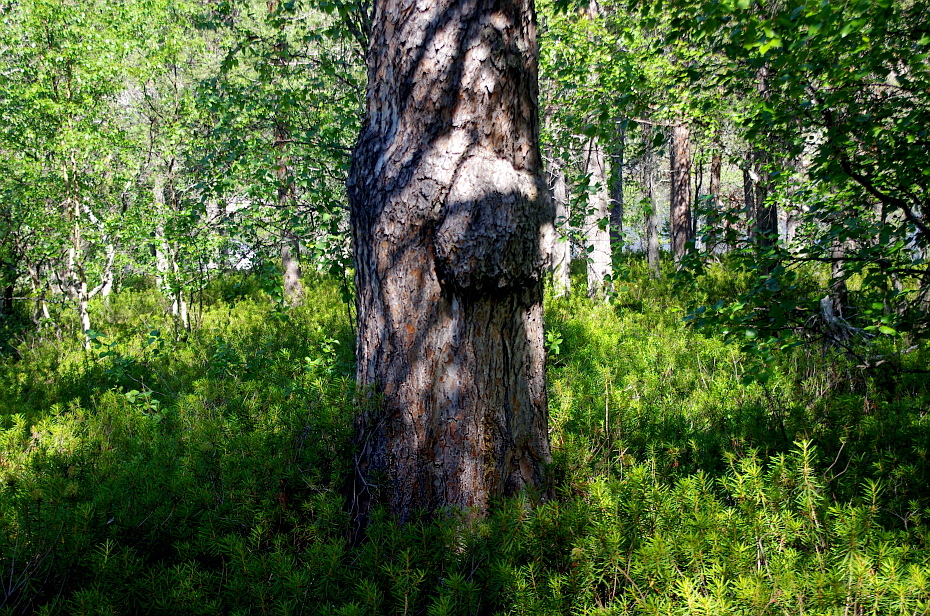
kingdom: Plantae
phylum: Tracheophyta
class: Pinopsida
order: Pinales
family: Pinaceae
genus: Pinus
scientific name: Pinus sylvestris
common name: Scots pine
